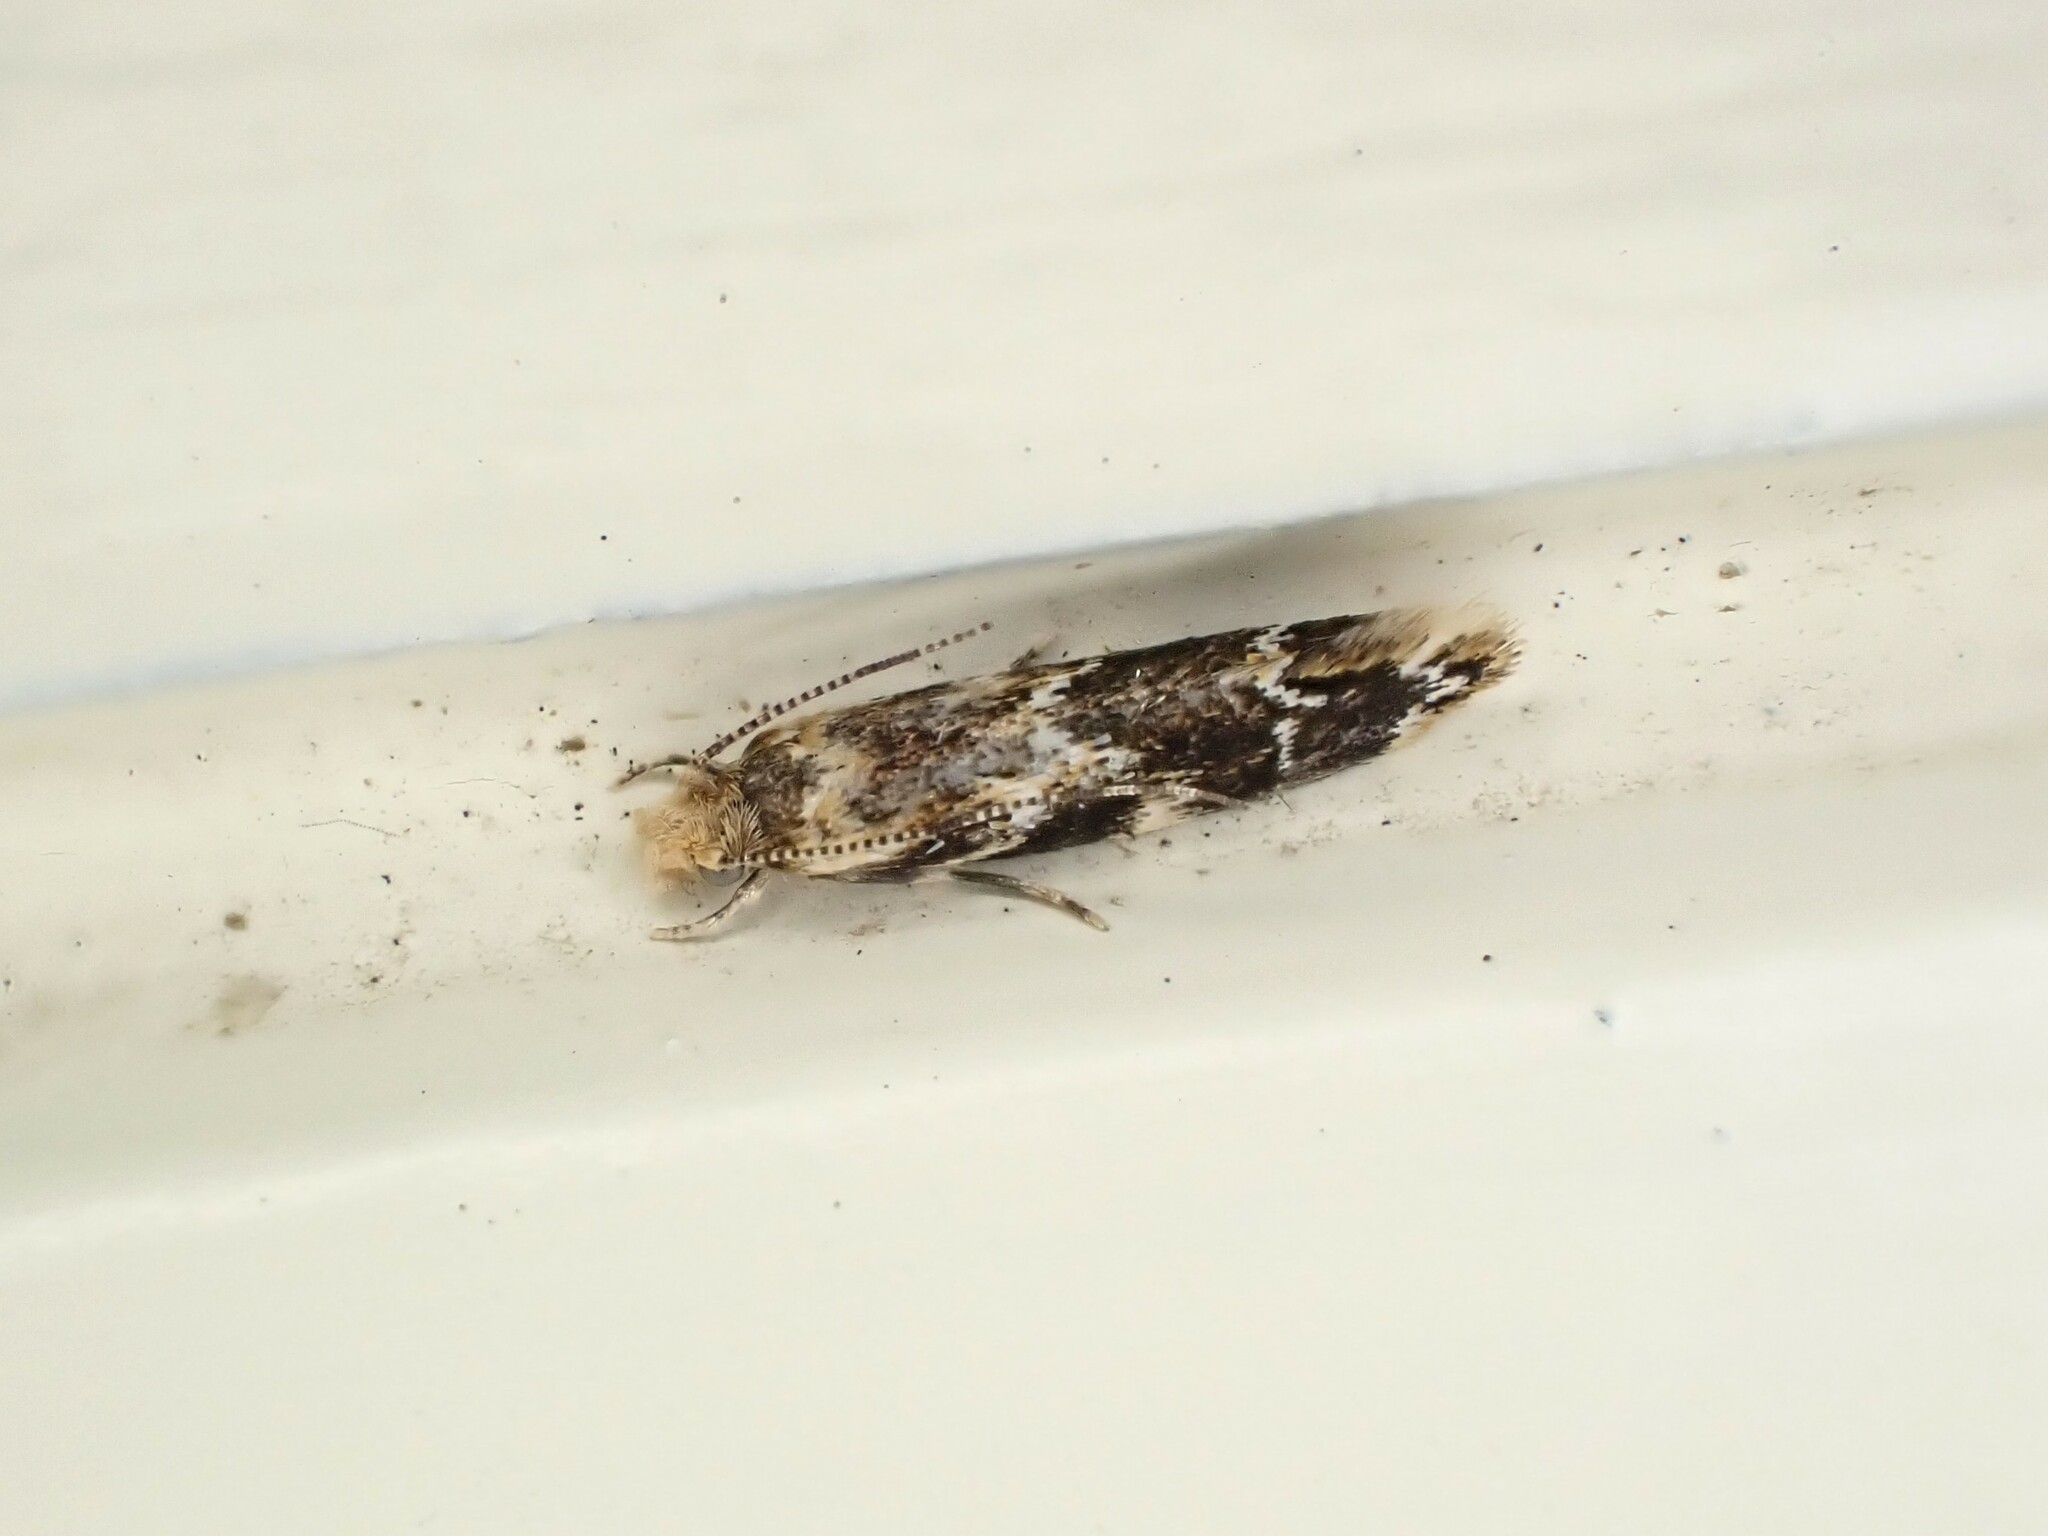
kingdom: Animalia
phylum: Arthropoda
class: Insecta
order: Lepidoptera
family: Dryadaulidae
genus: Dryadaula
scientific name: Dryadaula pactolia
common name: Cellar clothes
